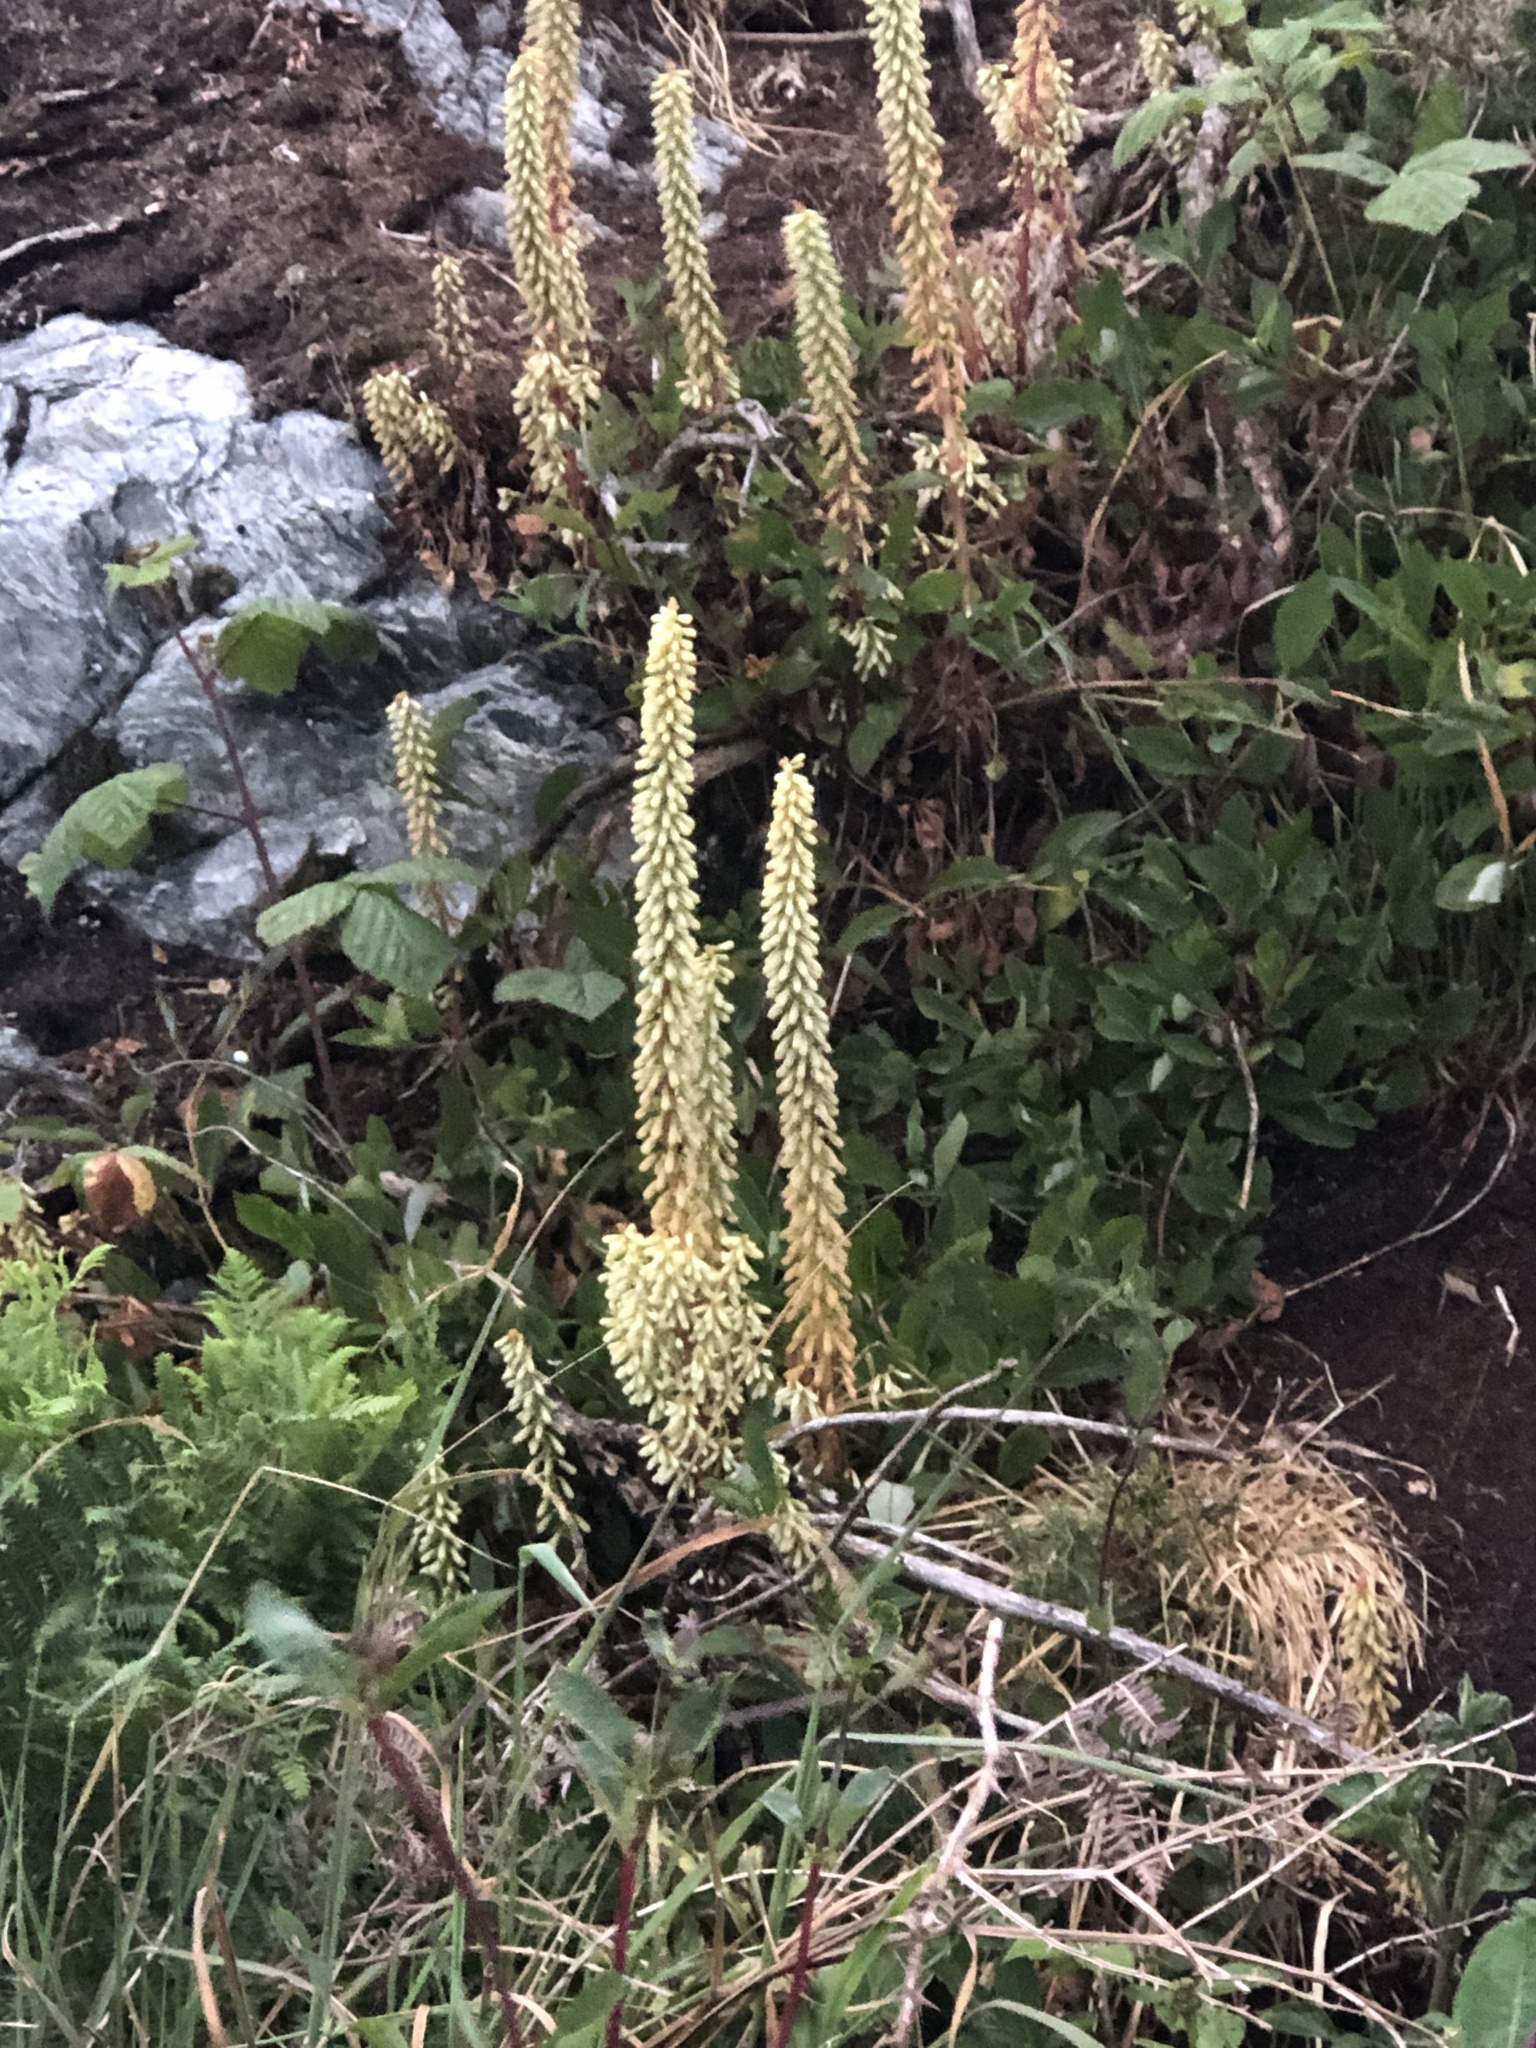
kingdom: Plantae
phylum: Tracheophyta
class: Magnoliopsida
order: Saxifragales
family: Crassulaceae
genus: Umbilicus
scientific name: Umbilicus rupestris
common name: Navelwort
